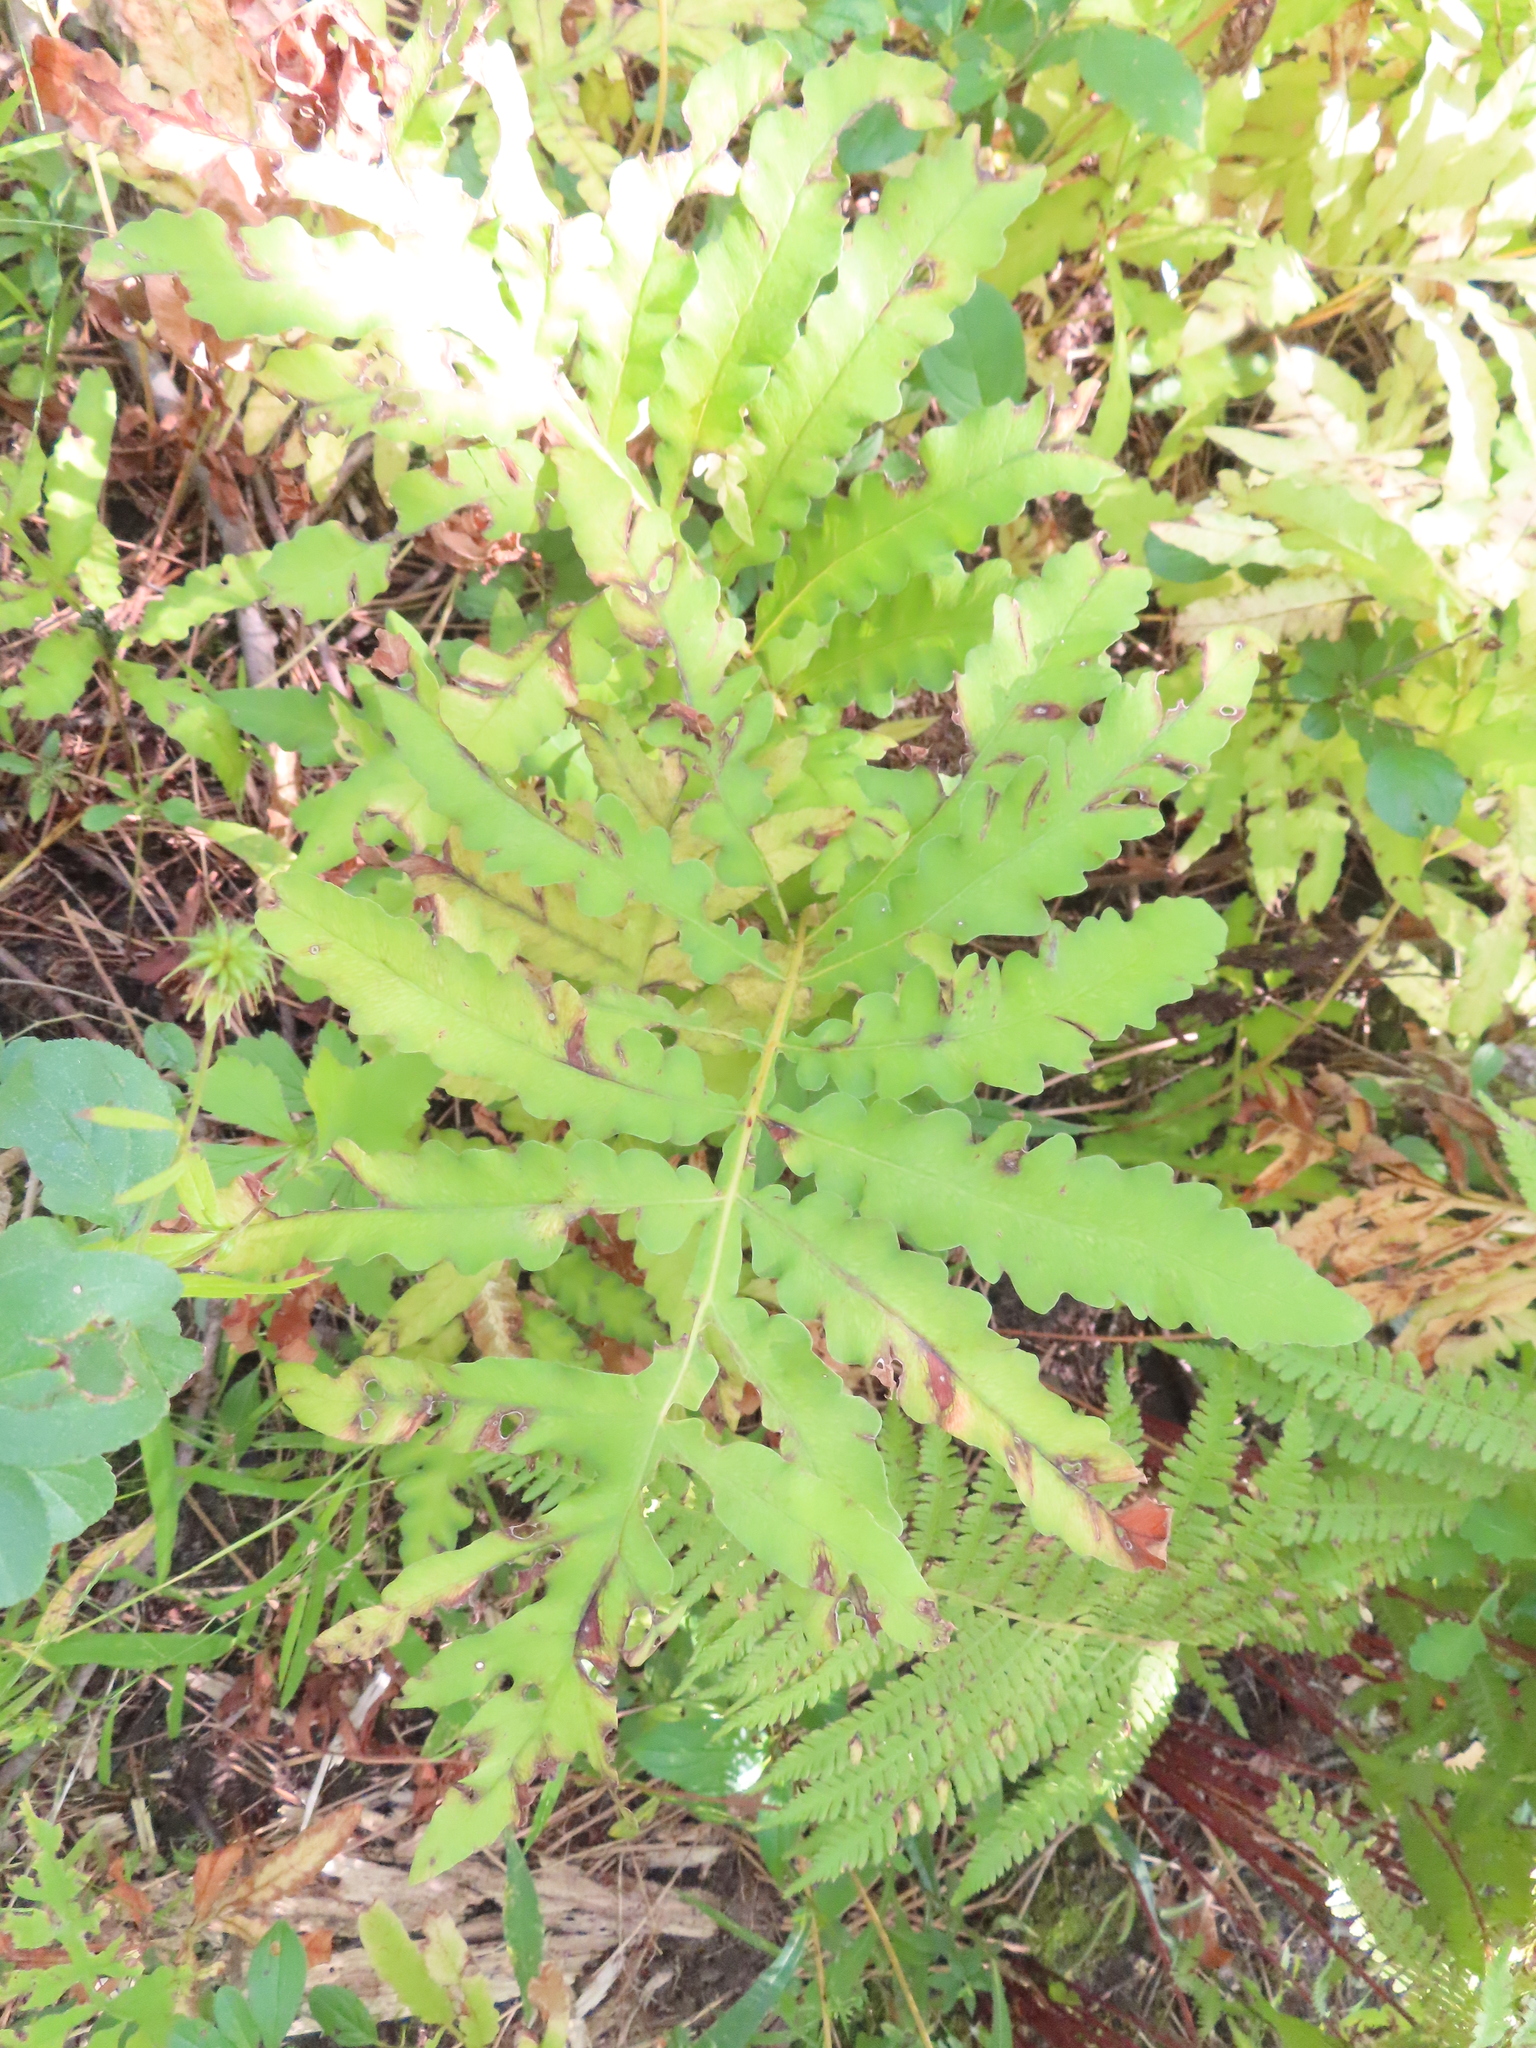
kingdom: Plantae
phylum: Tracheophyta
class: Polypodiopsida
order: Polypodiales
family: Onocleaceae
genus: Onoclea
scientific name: Onoclea sensibilis
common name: Sensitive fern
